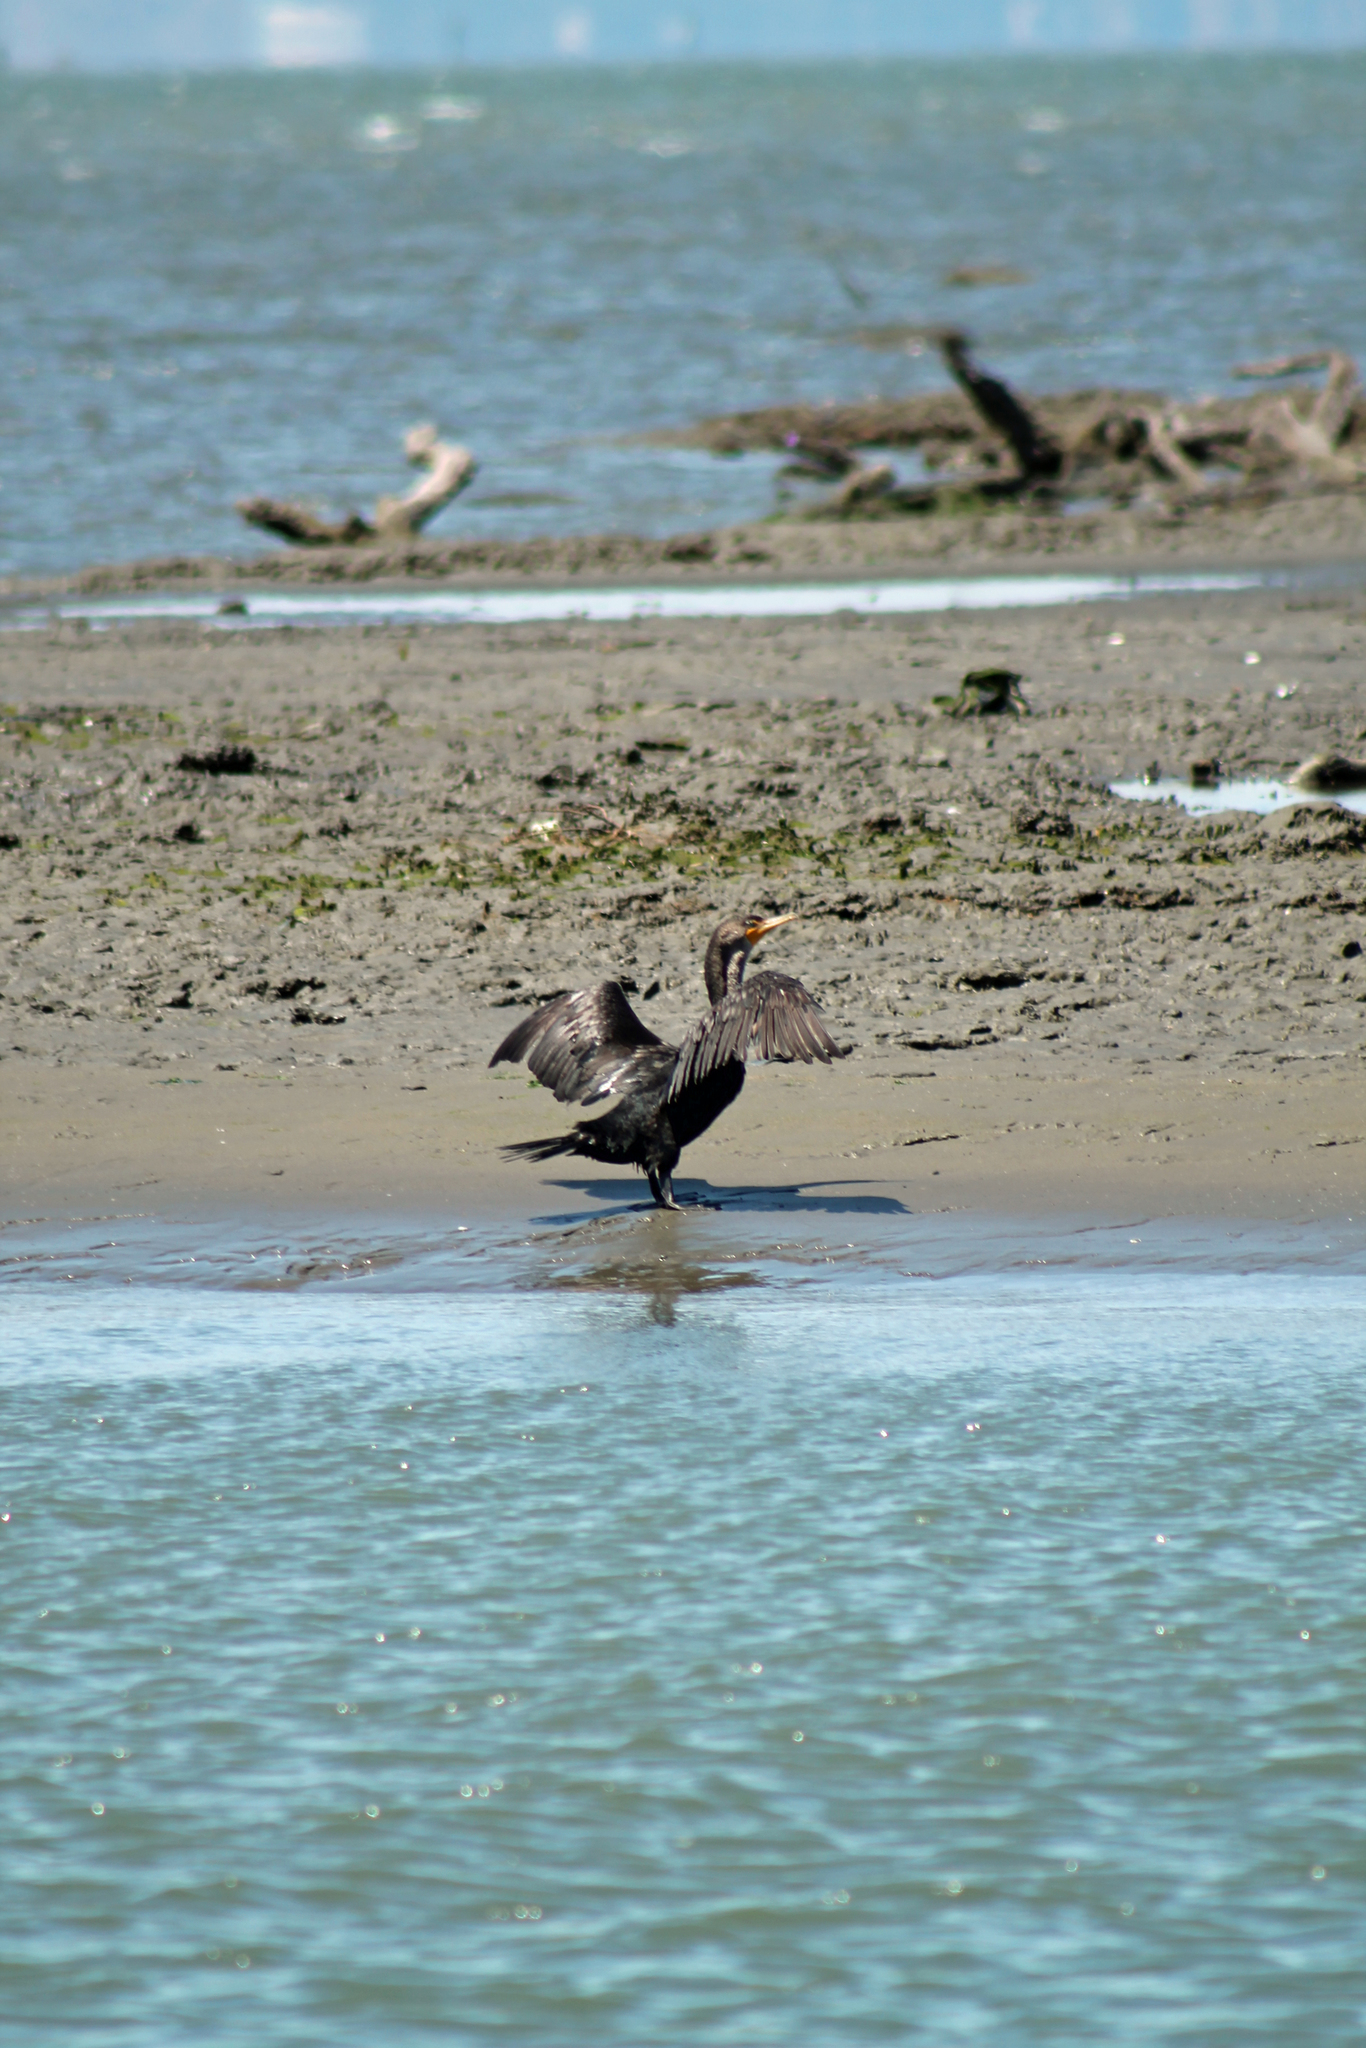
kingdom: Animalia
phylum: Chordata
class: Aves
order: Suliformes
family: Phalacrocoracidae
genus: Phalacrocorax
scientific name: Phalacrocorax auritus
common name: Double-crested cormorant
